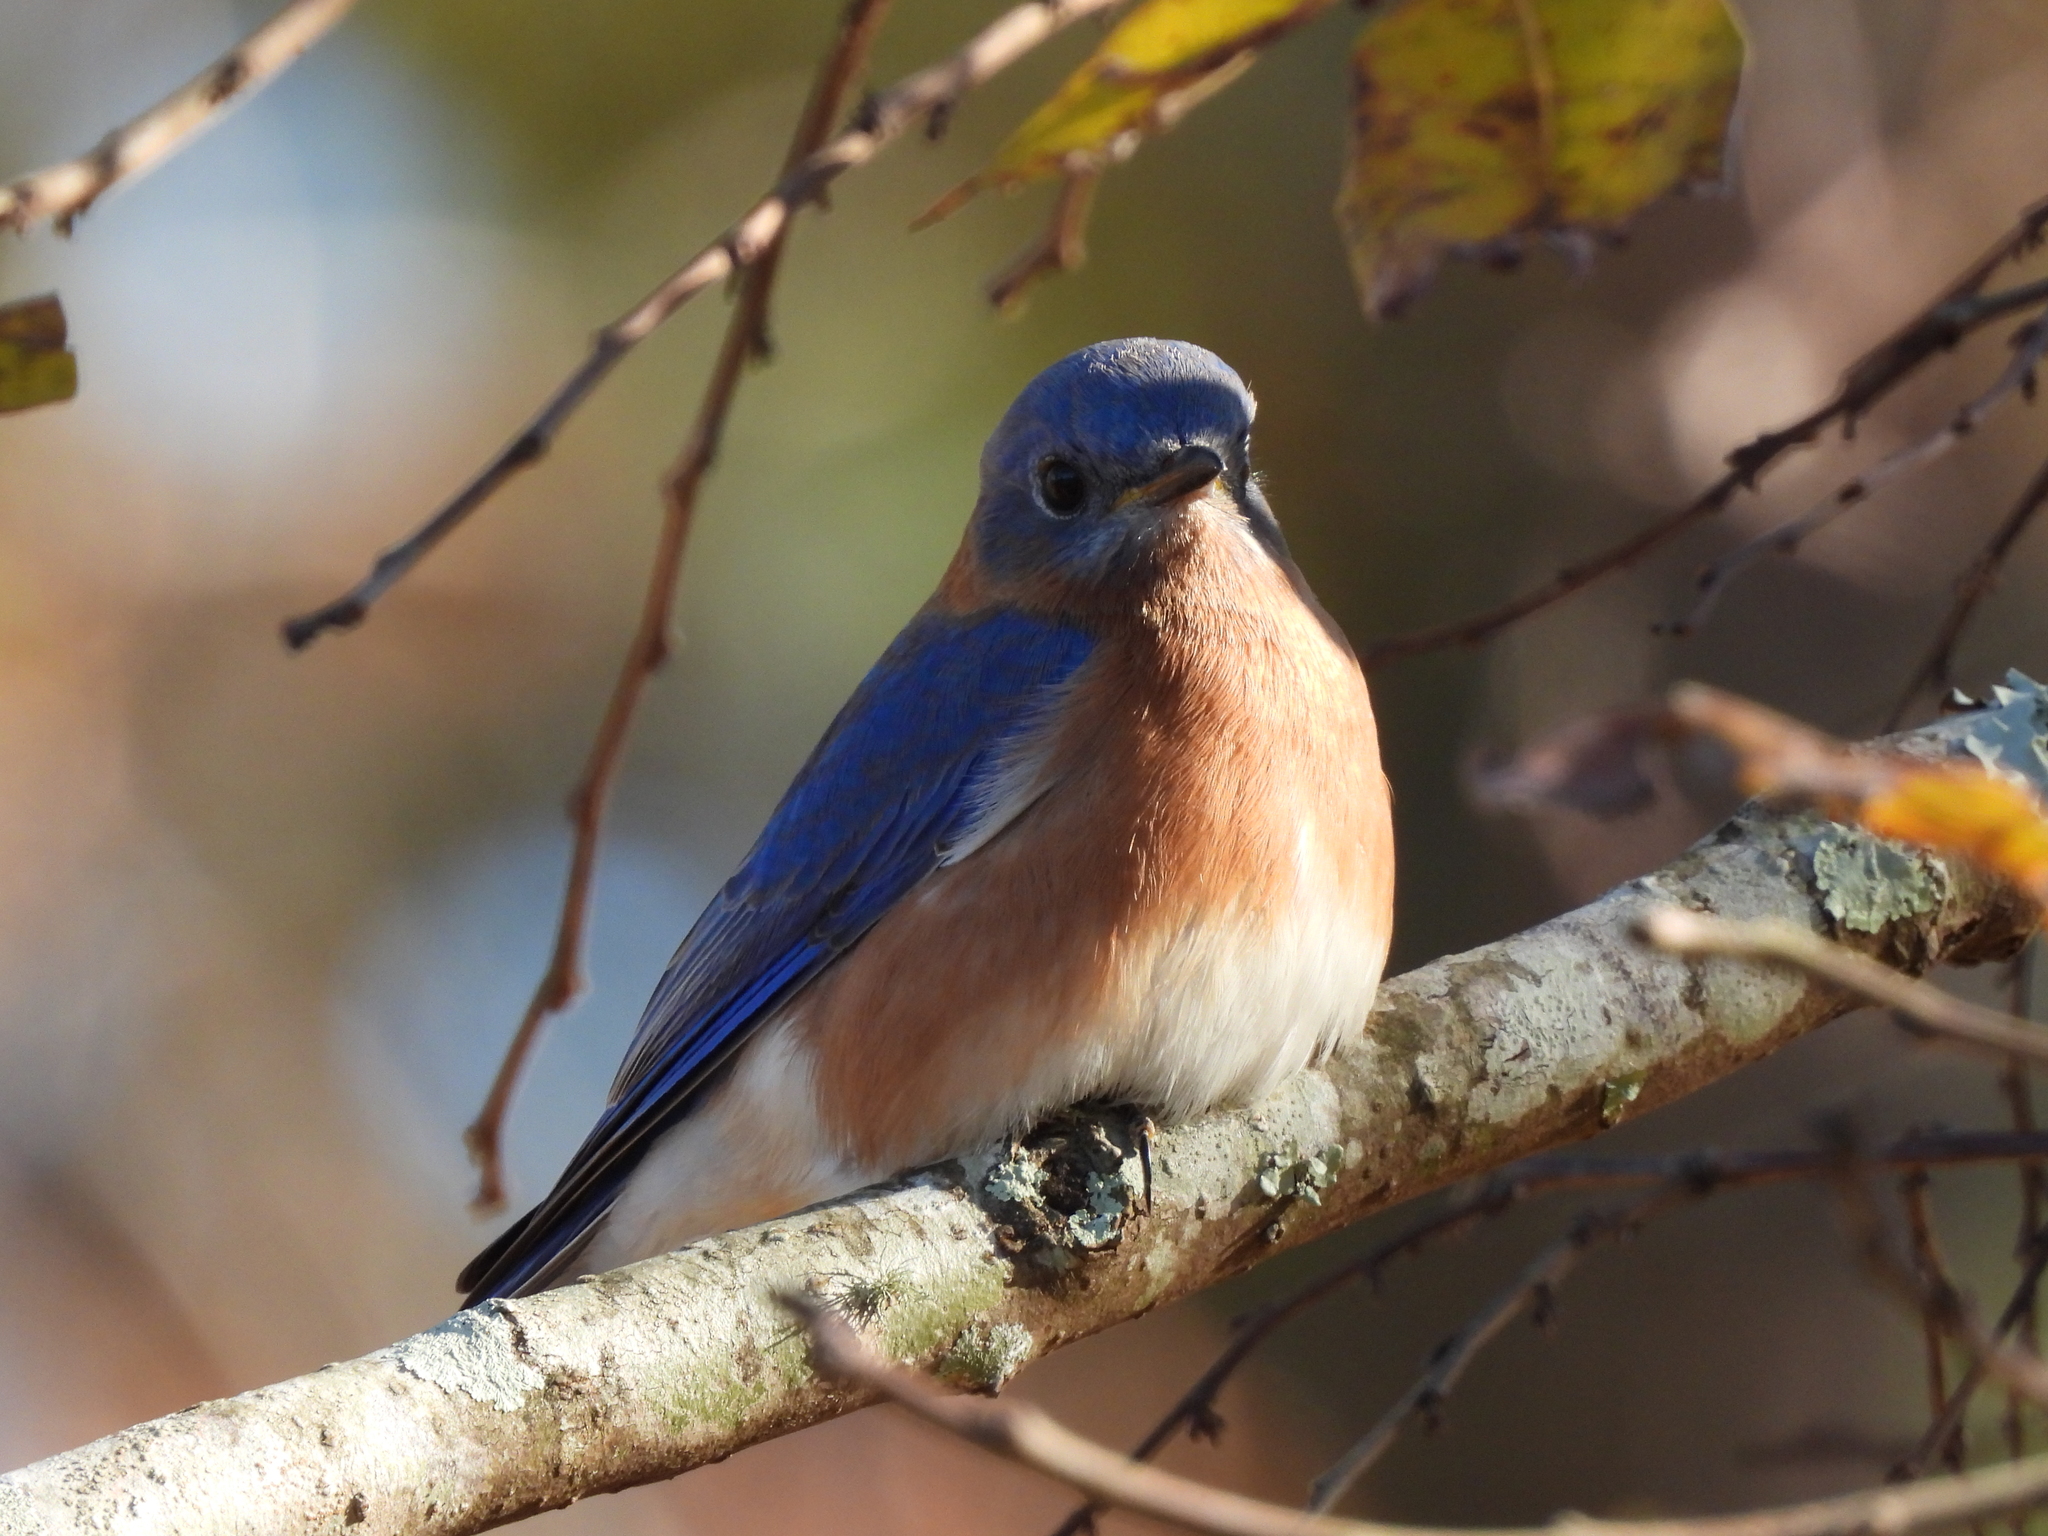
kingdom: Animalia
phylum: Chordata
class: Aves
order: Passeriformes
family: Turdidae
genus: Sialia
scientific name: Sialia sialis
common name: Eastern bluebird
